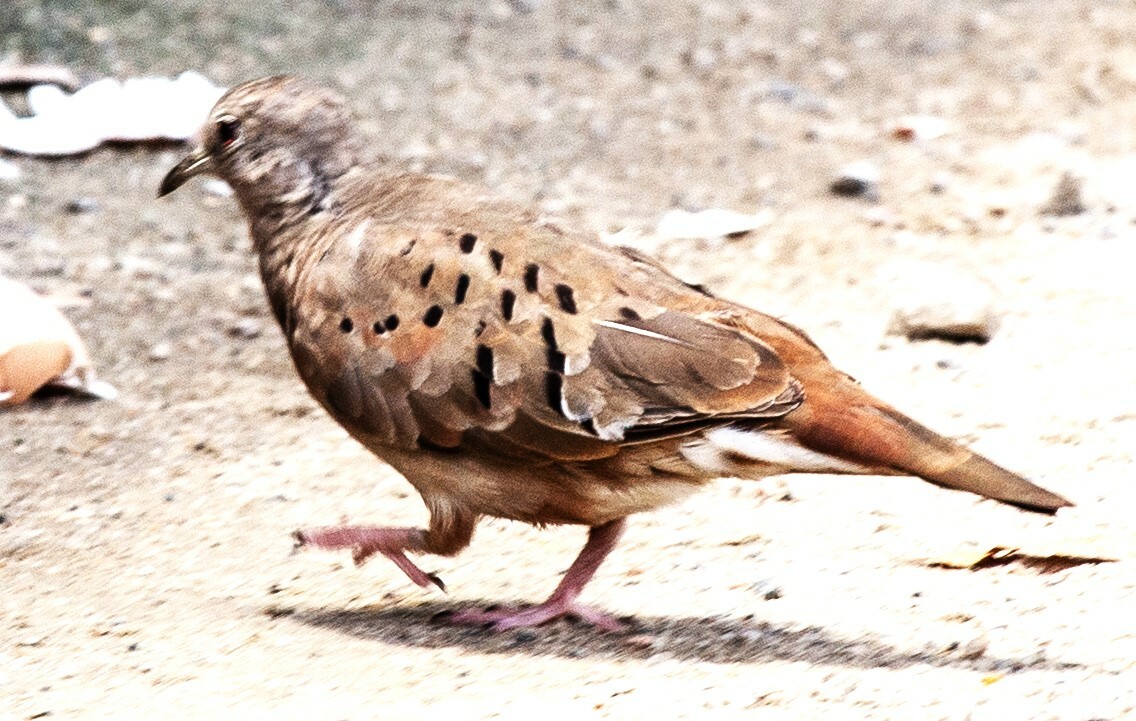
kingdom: Animalia
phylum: Chordata
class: Aves
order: Columbiformes
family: Columbidae
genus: Columbina
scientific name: Columbina passerina
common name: Common ground-dove
